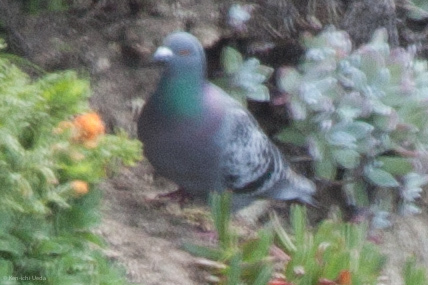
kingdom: Animalia
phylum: Chordata
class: Aves
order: Columbiformes
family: Columbidae
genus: Columba
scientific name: Columba livia
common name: Rock pigeon
